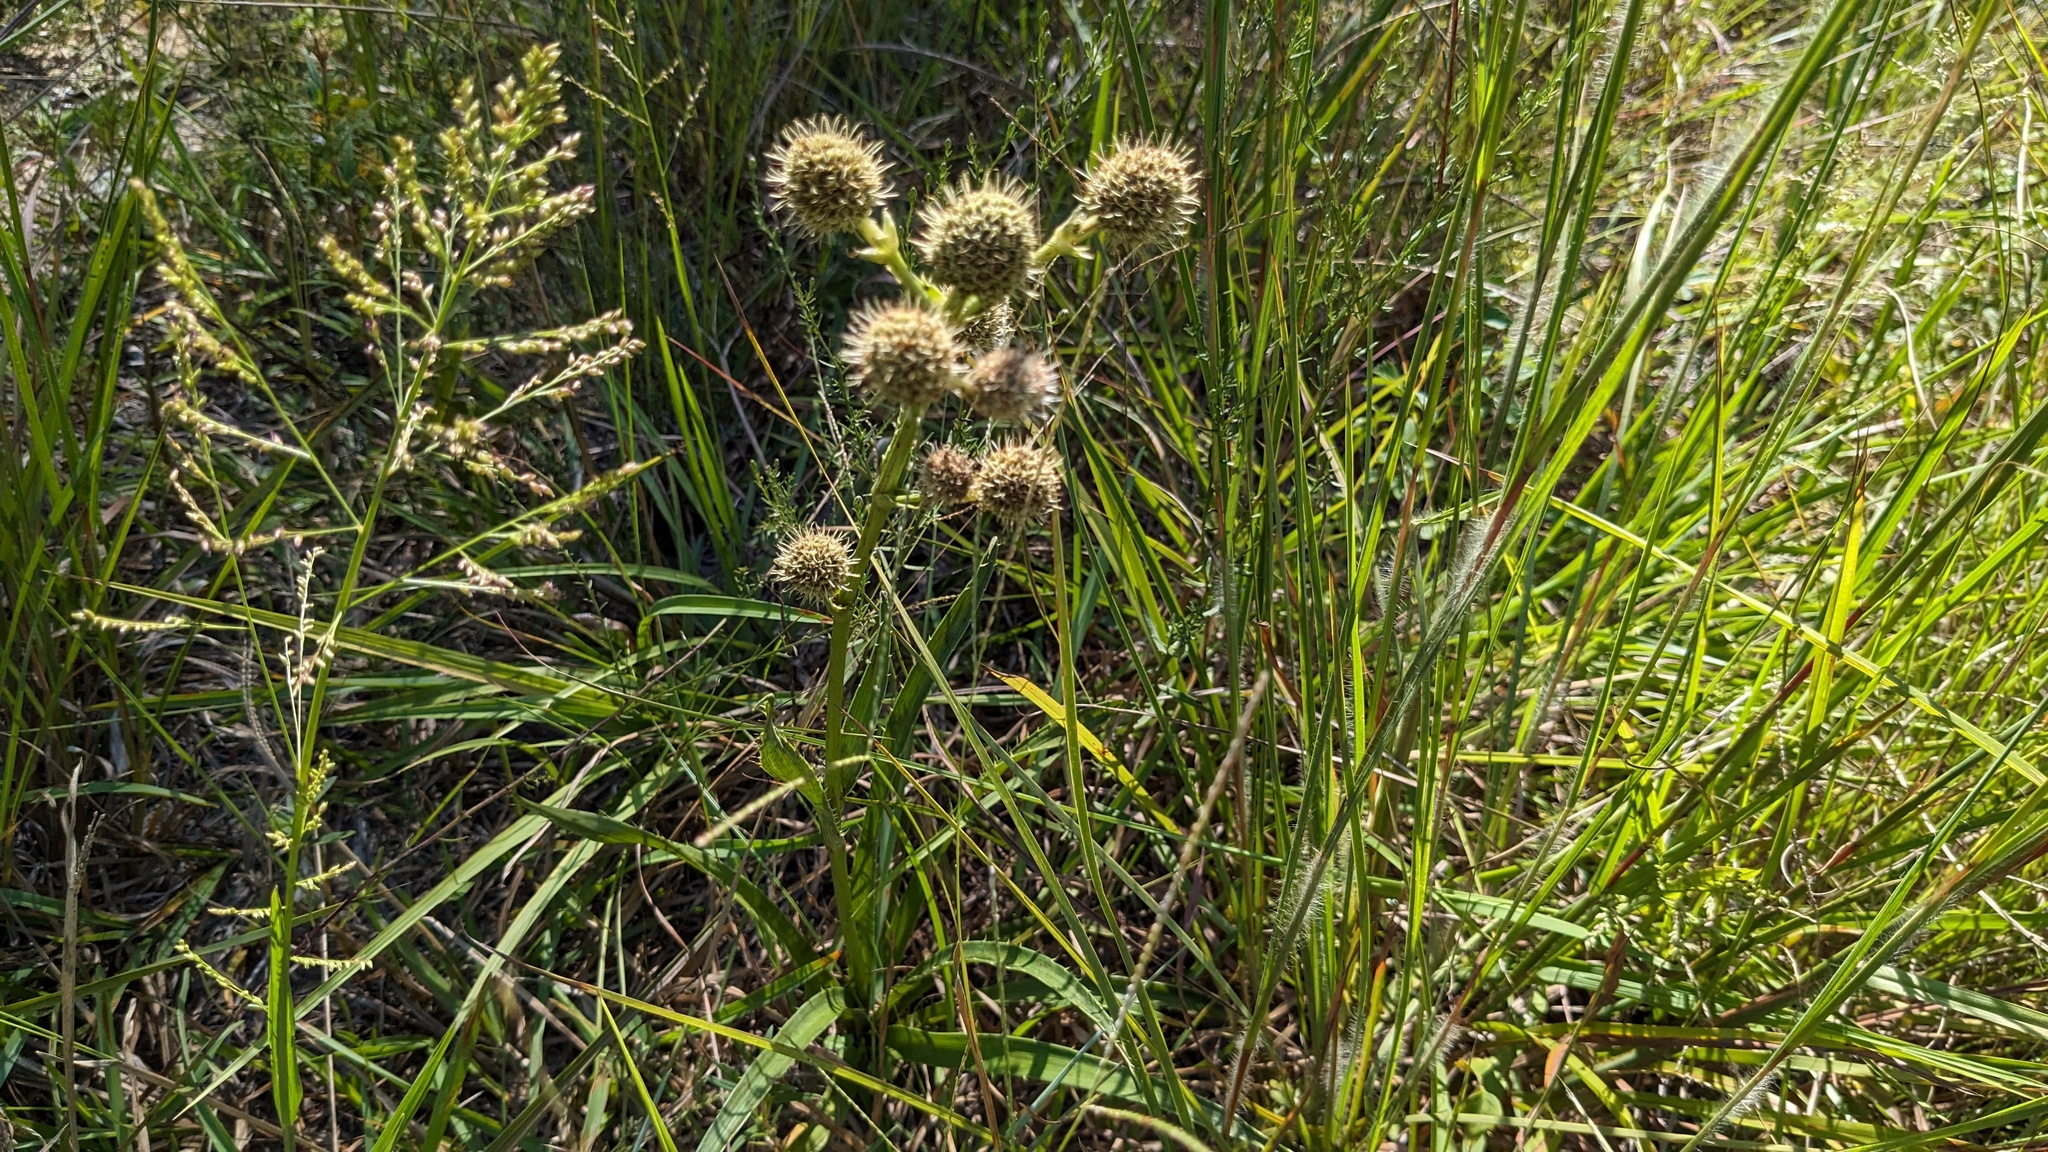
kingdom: Plantae
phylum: Tracheophyta
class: Magnoliopsida
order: Apiales
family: Apiaceae
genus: Eryngium
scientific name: Eryngium yuccifolium
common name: Button eryngo
